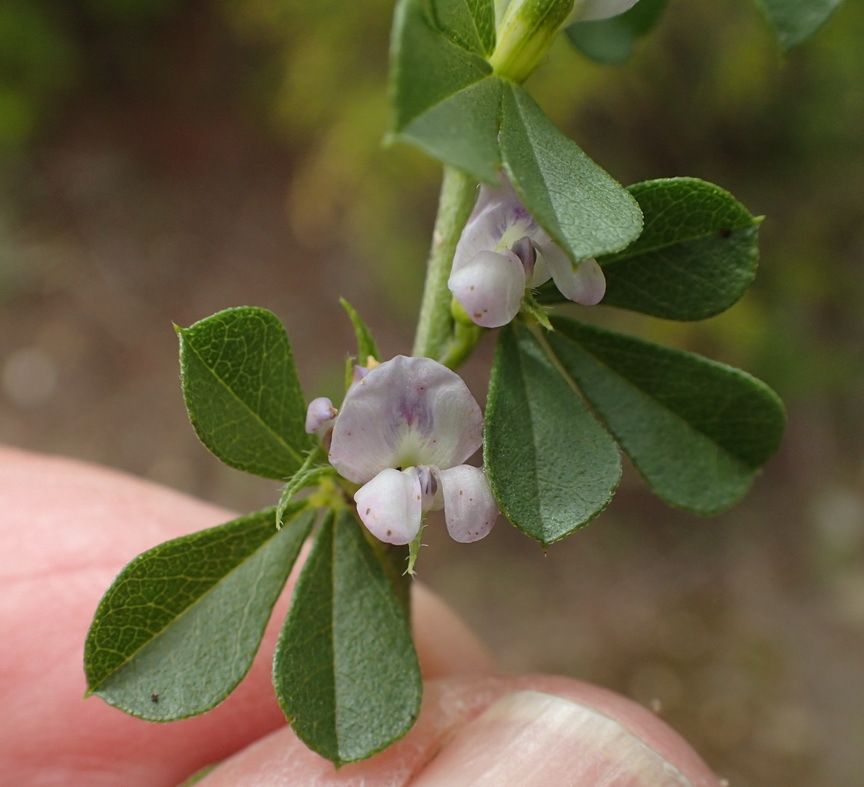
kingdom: Plantae
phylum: Tracheophyta
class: Magnoliopsida
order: Fabales
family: Fabaceae
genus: Psoralea
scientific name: Psoralea
